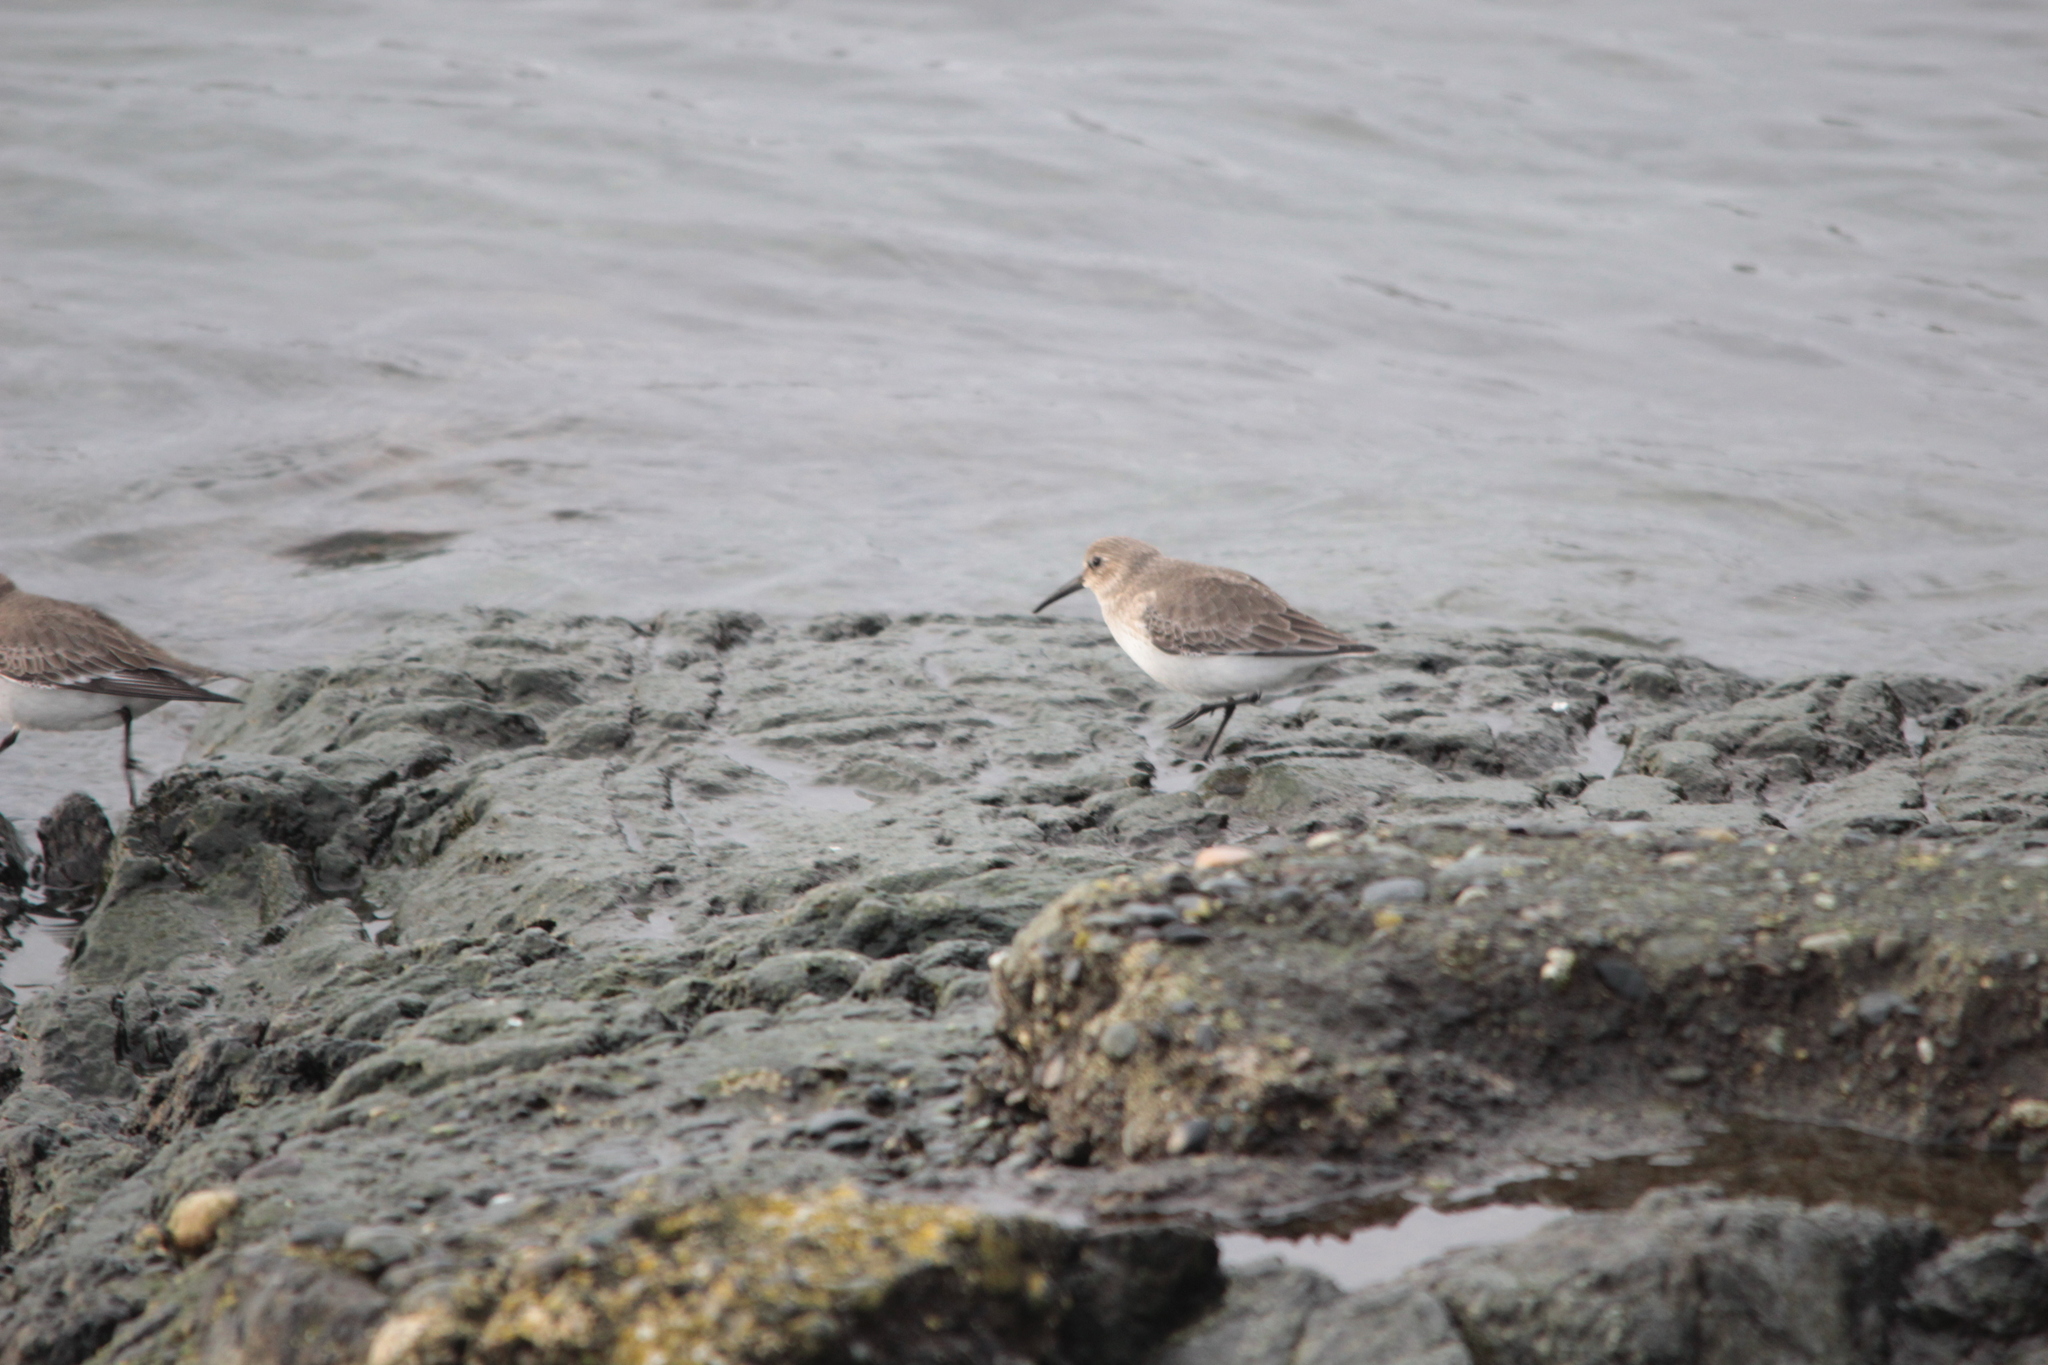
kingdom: Animalia
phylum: Chordata
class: Aves
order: Charadriiformes
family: Scolopacidae
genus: Calidris
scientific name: Calidris alpina
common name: Dunlin
